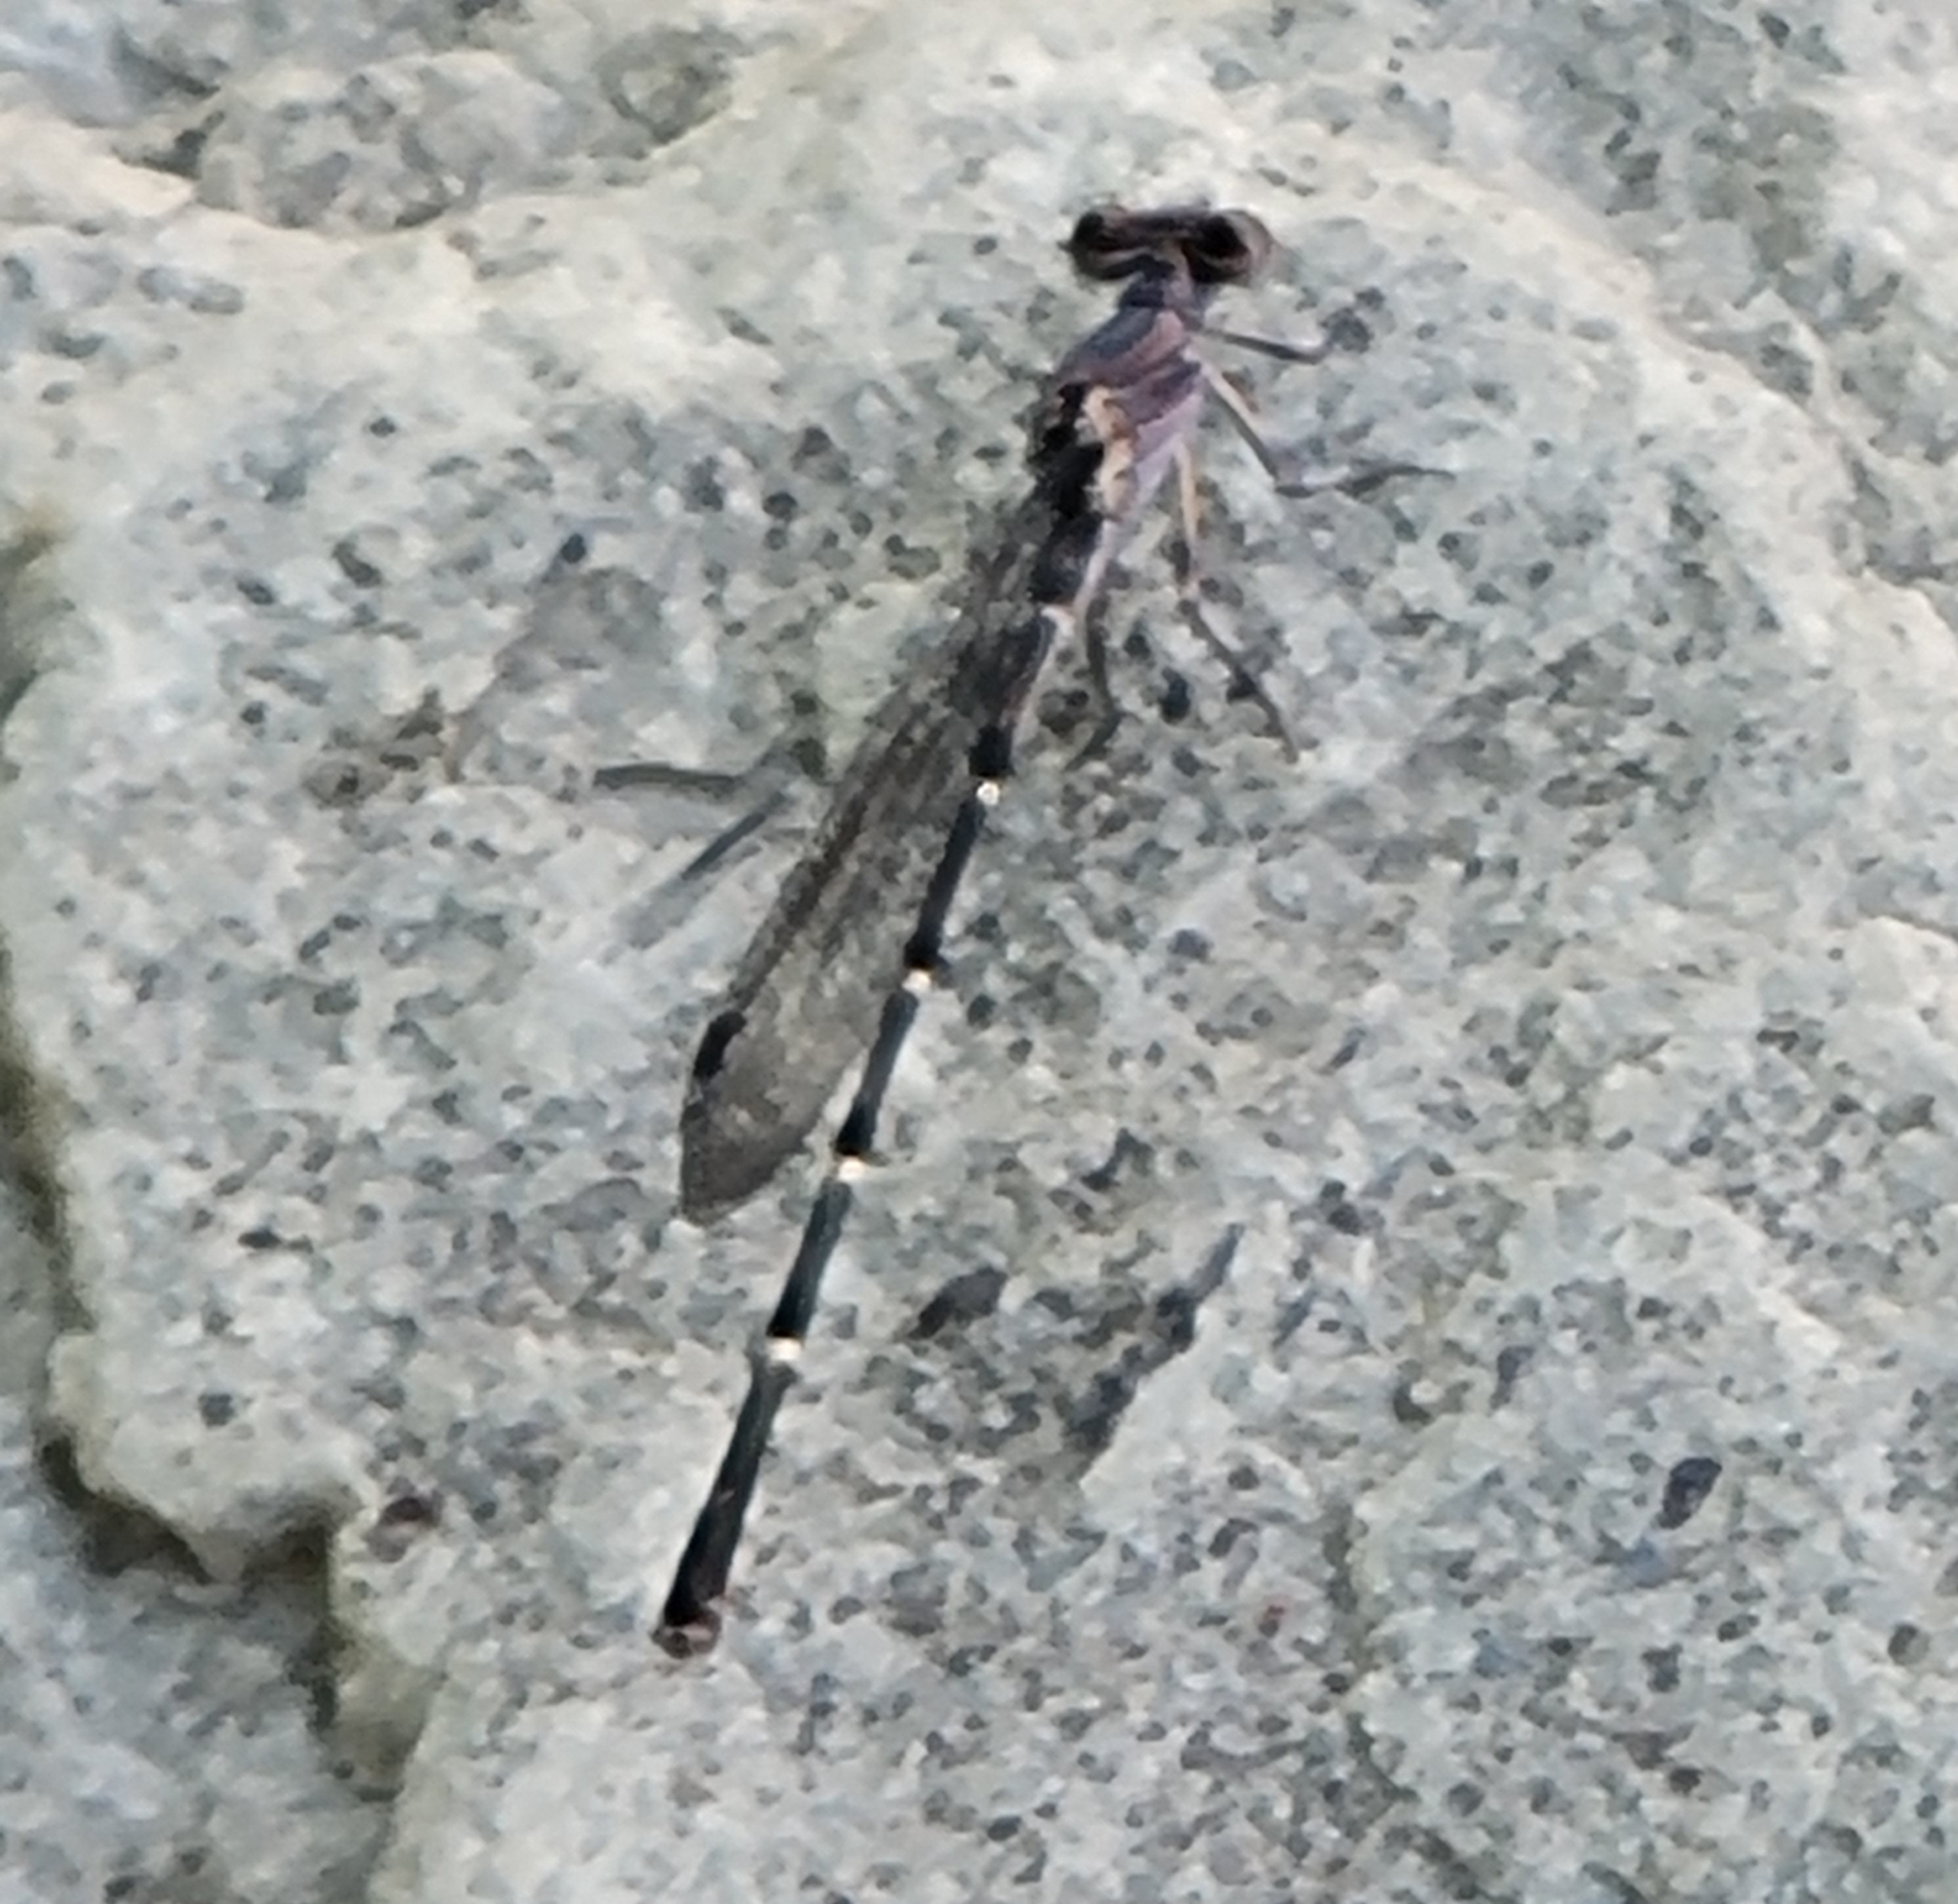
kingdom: Animalia
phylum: Arthropoda
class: Insecta
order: Odonata
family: Coenagrionidae
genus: Argia
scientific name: Argia lugens
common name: Sooty dancer
